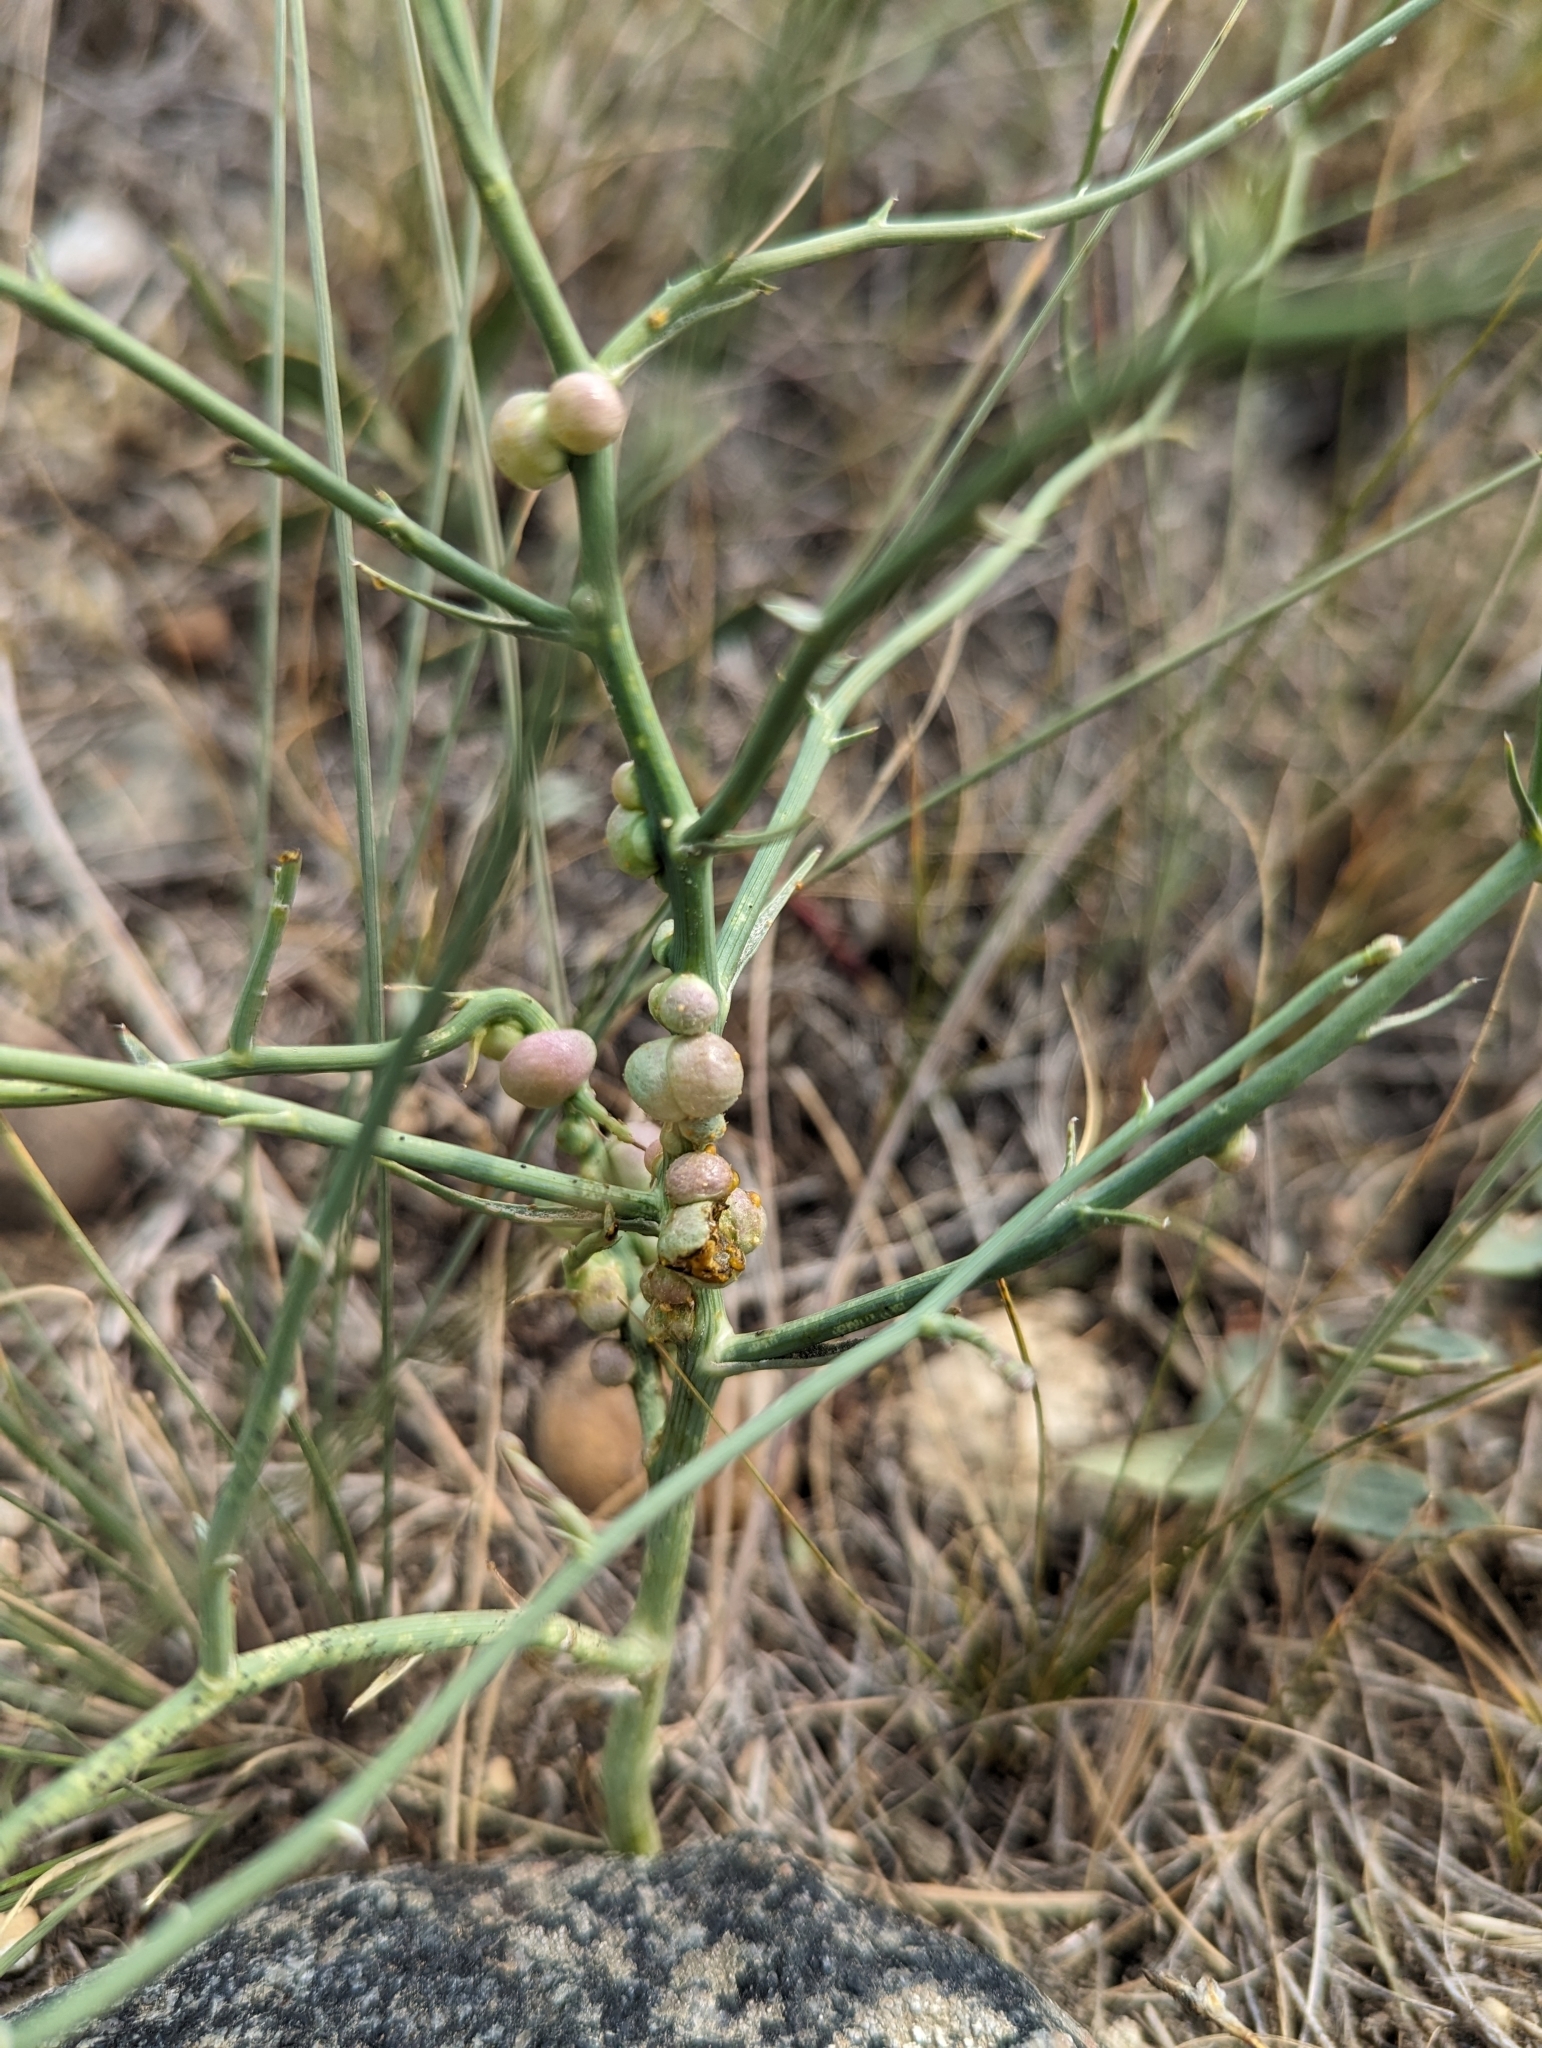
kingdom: Animalia
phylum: Arthropoda
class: Insecta
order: Hymenoptera
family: Cynipidae
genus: Antistrophus
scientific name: Antistrophus
